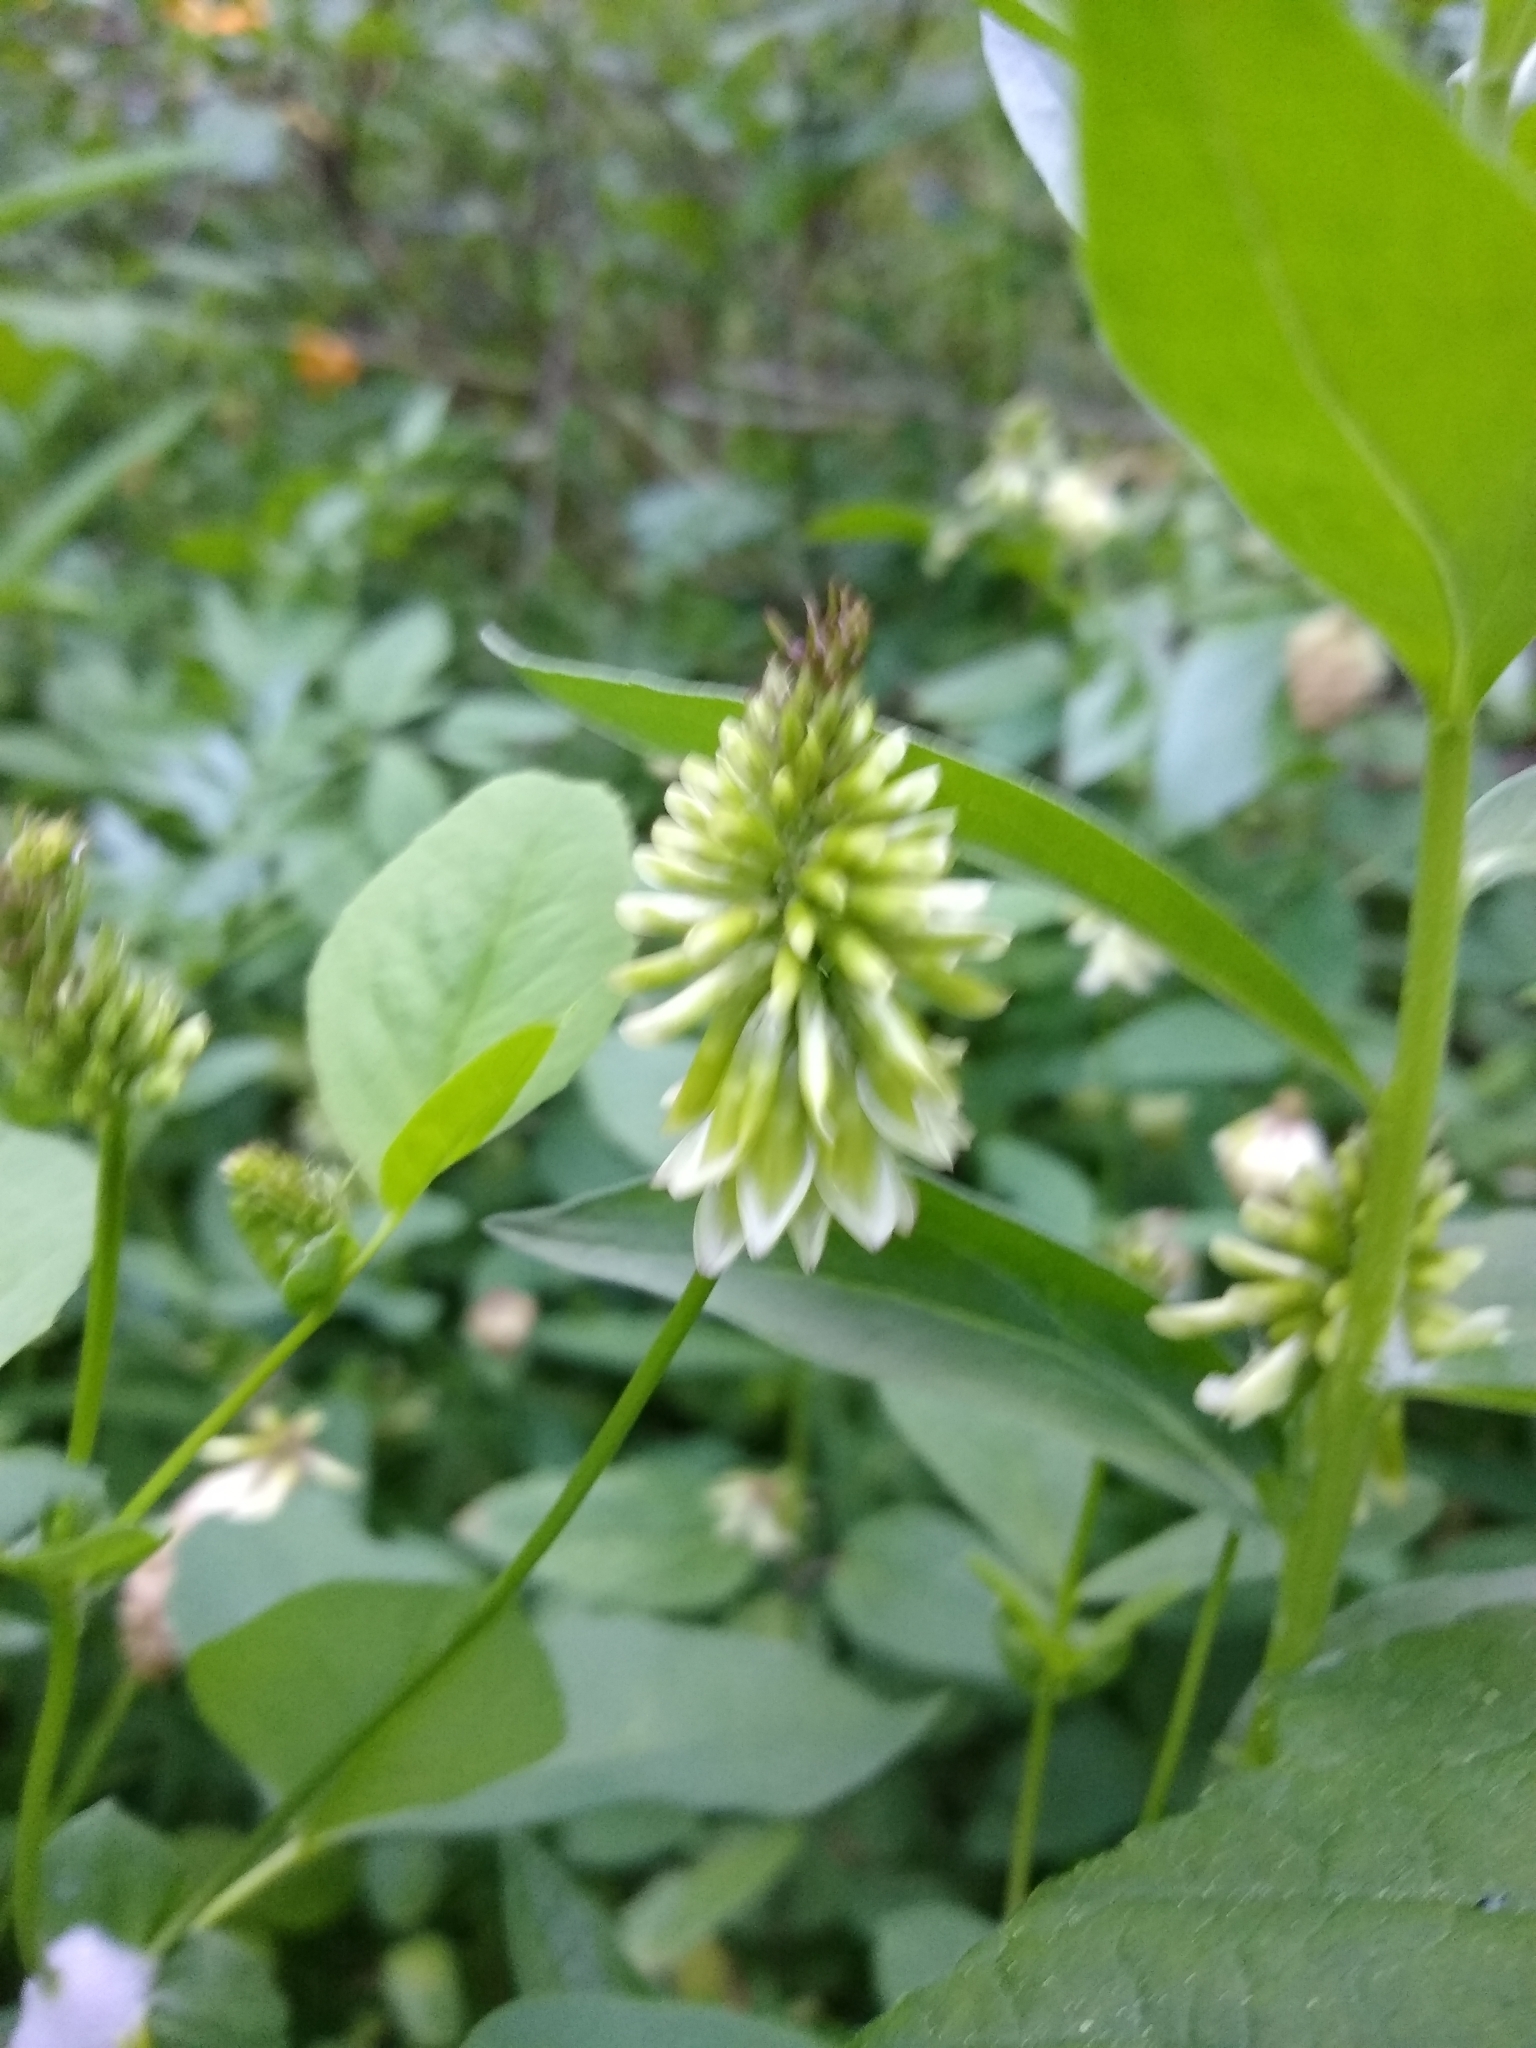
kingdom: Plantae
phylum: Tracheophyta
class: Magnoliopsida
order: Fabales
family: Fabaceae
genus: Trifolium
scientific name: Trifolium howellii
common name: Howell's clover
